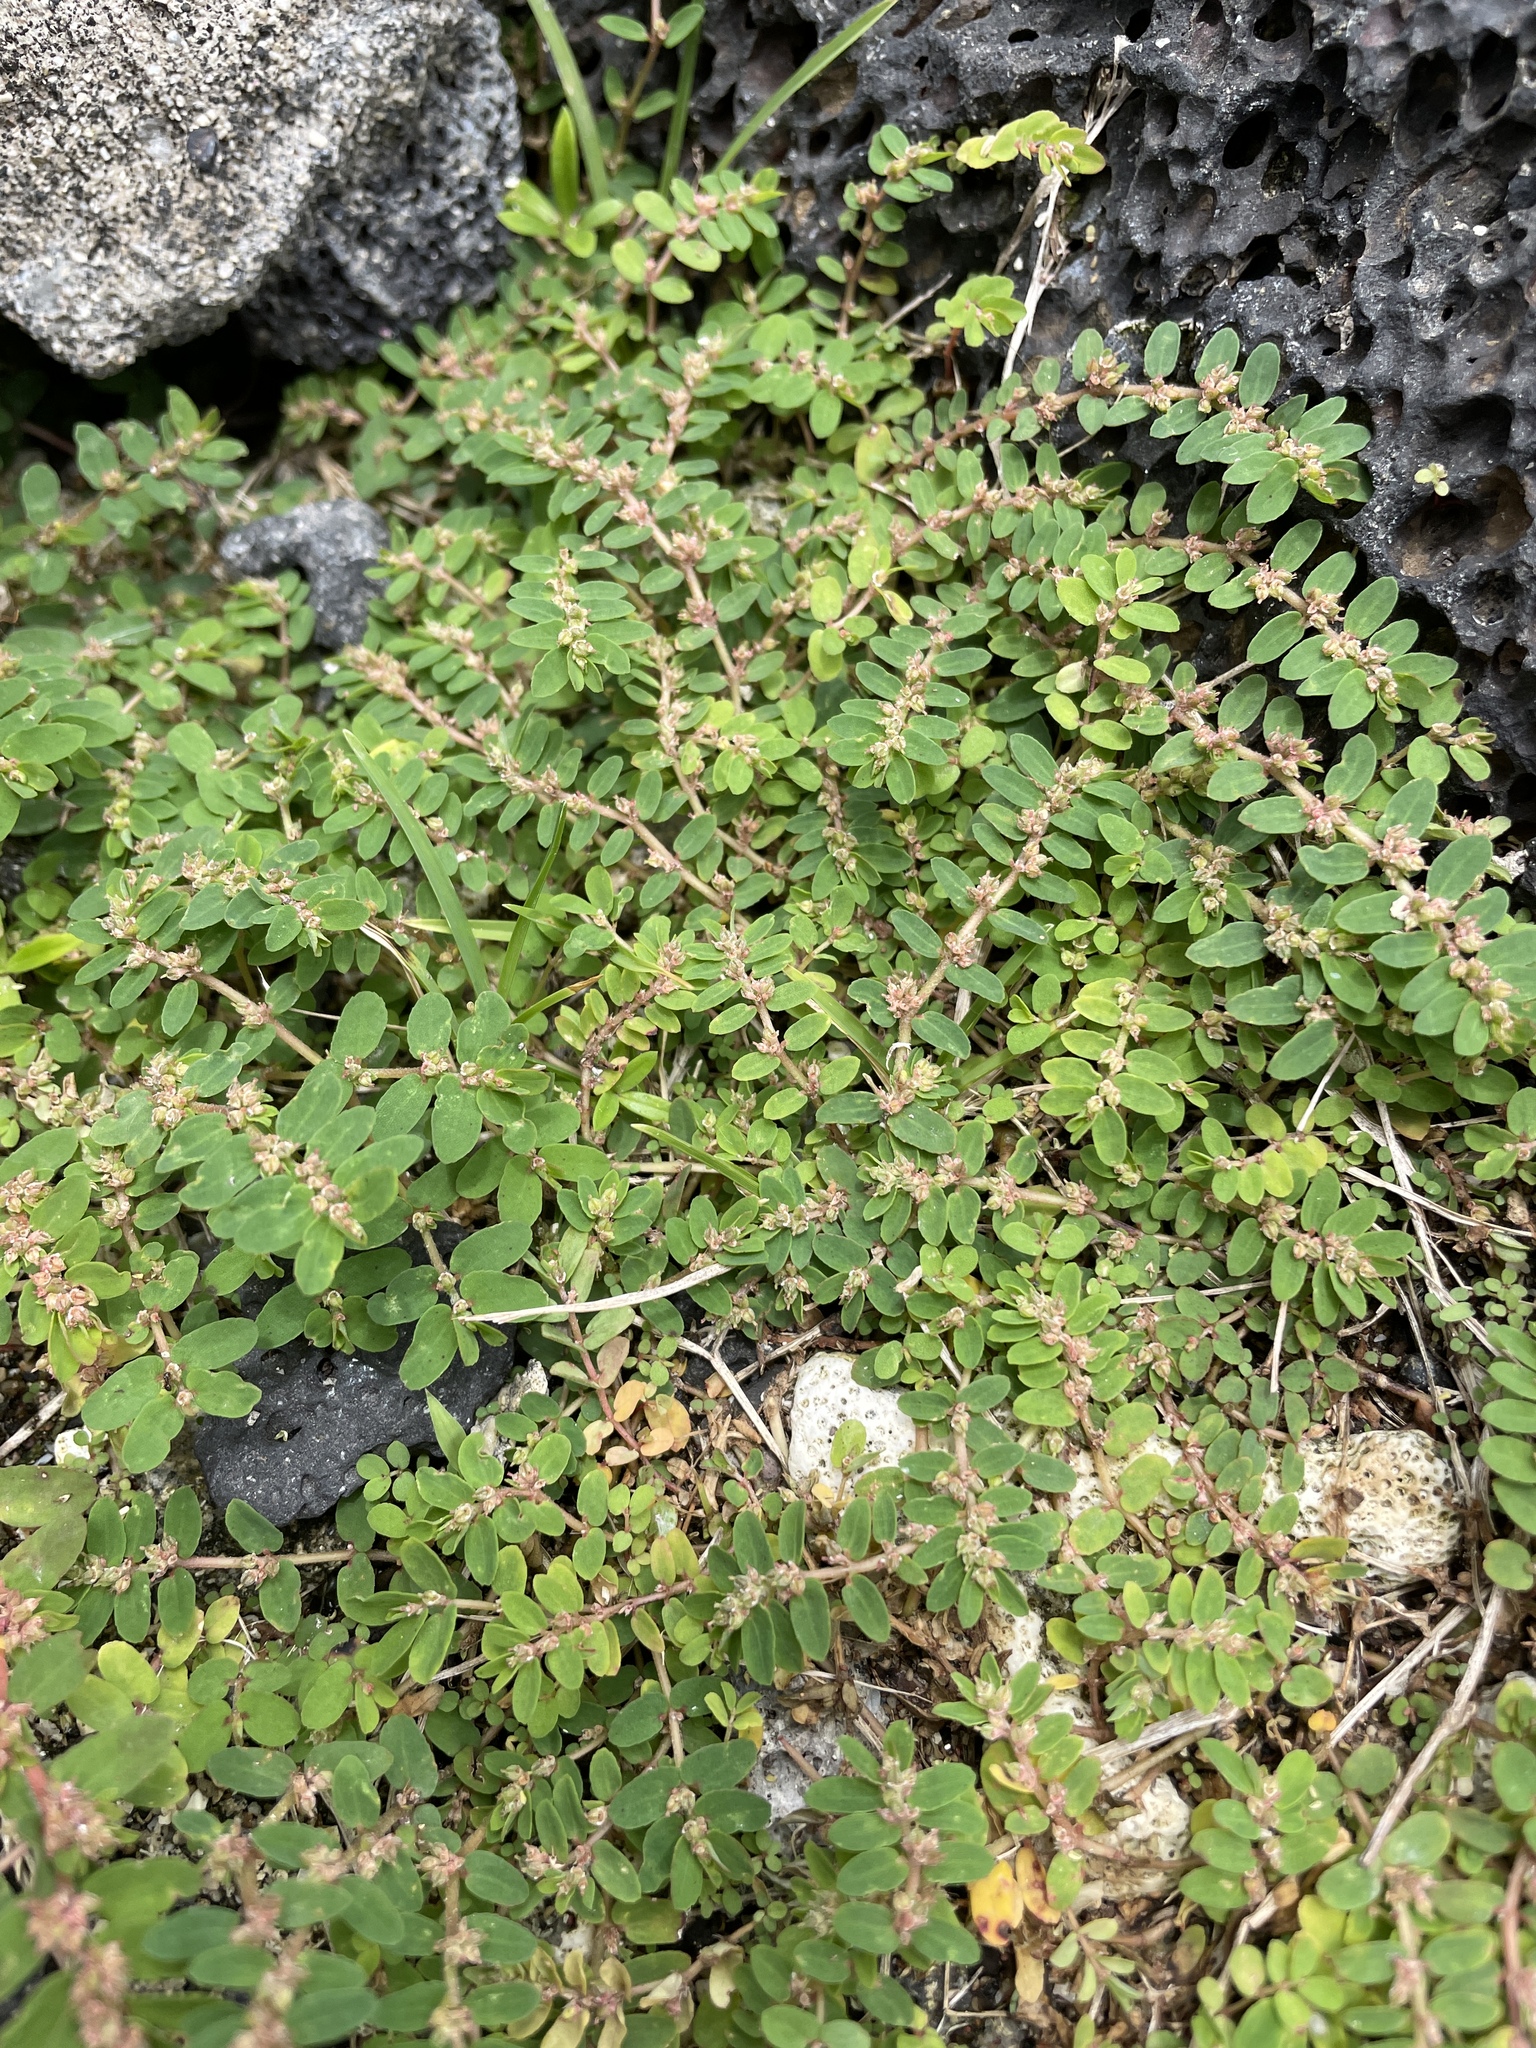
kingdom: Plantae
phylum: Tracheophyta
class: Magnoliopsida
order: Malpighiales
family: Euphorbiaceae
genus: Euphorbia
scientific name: Euphorbia thymifolia
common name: Gulf sandmat
